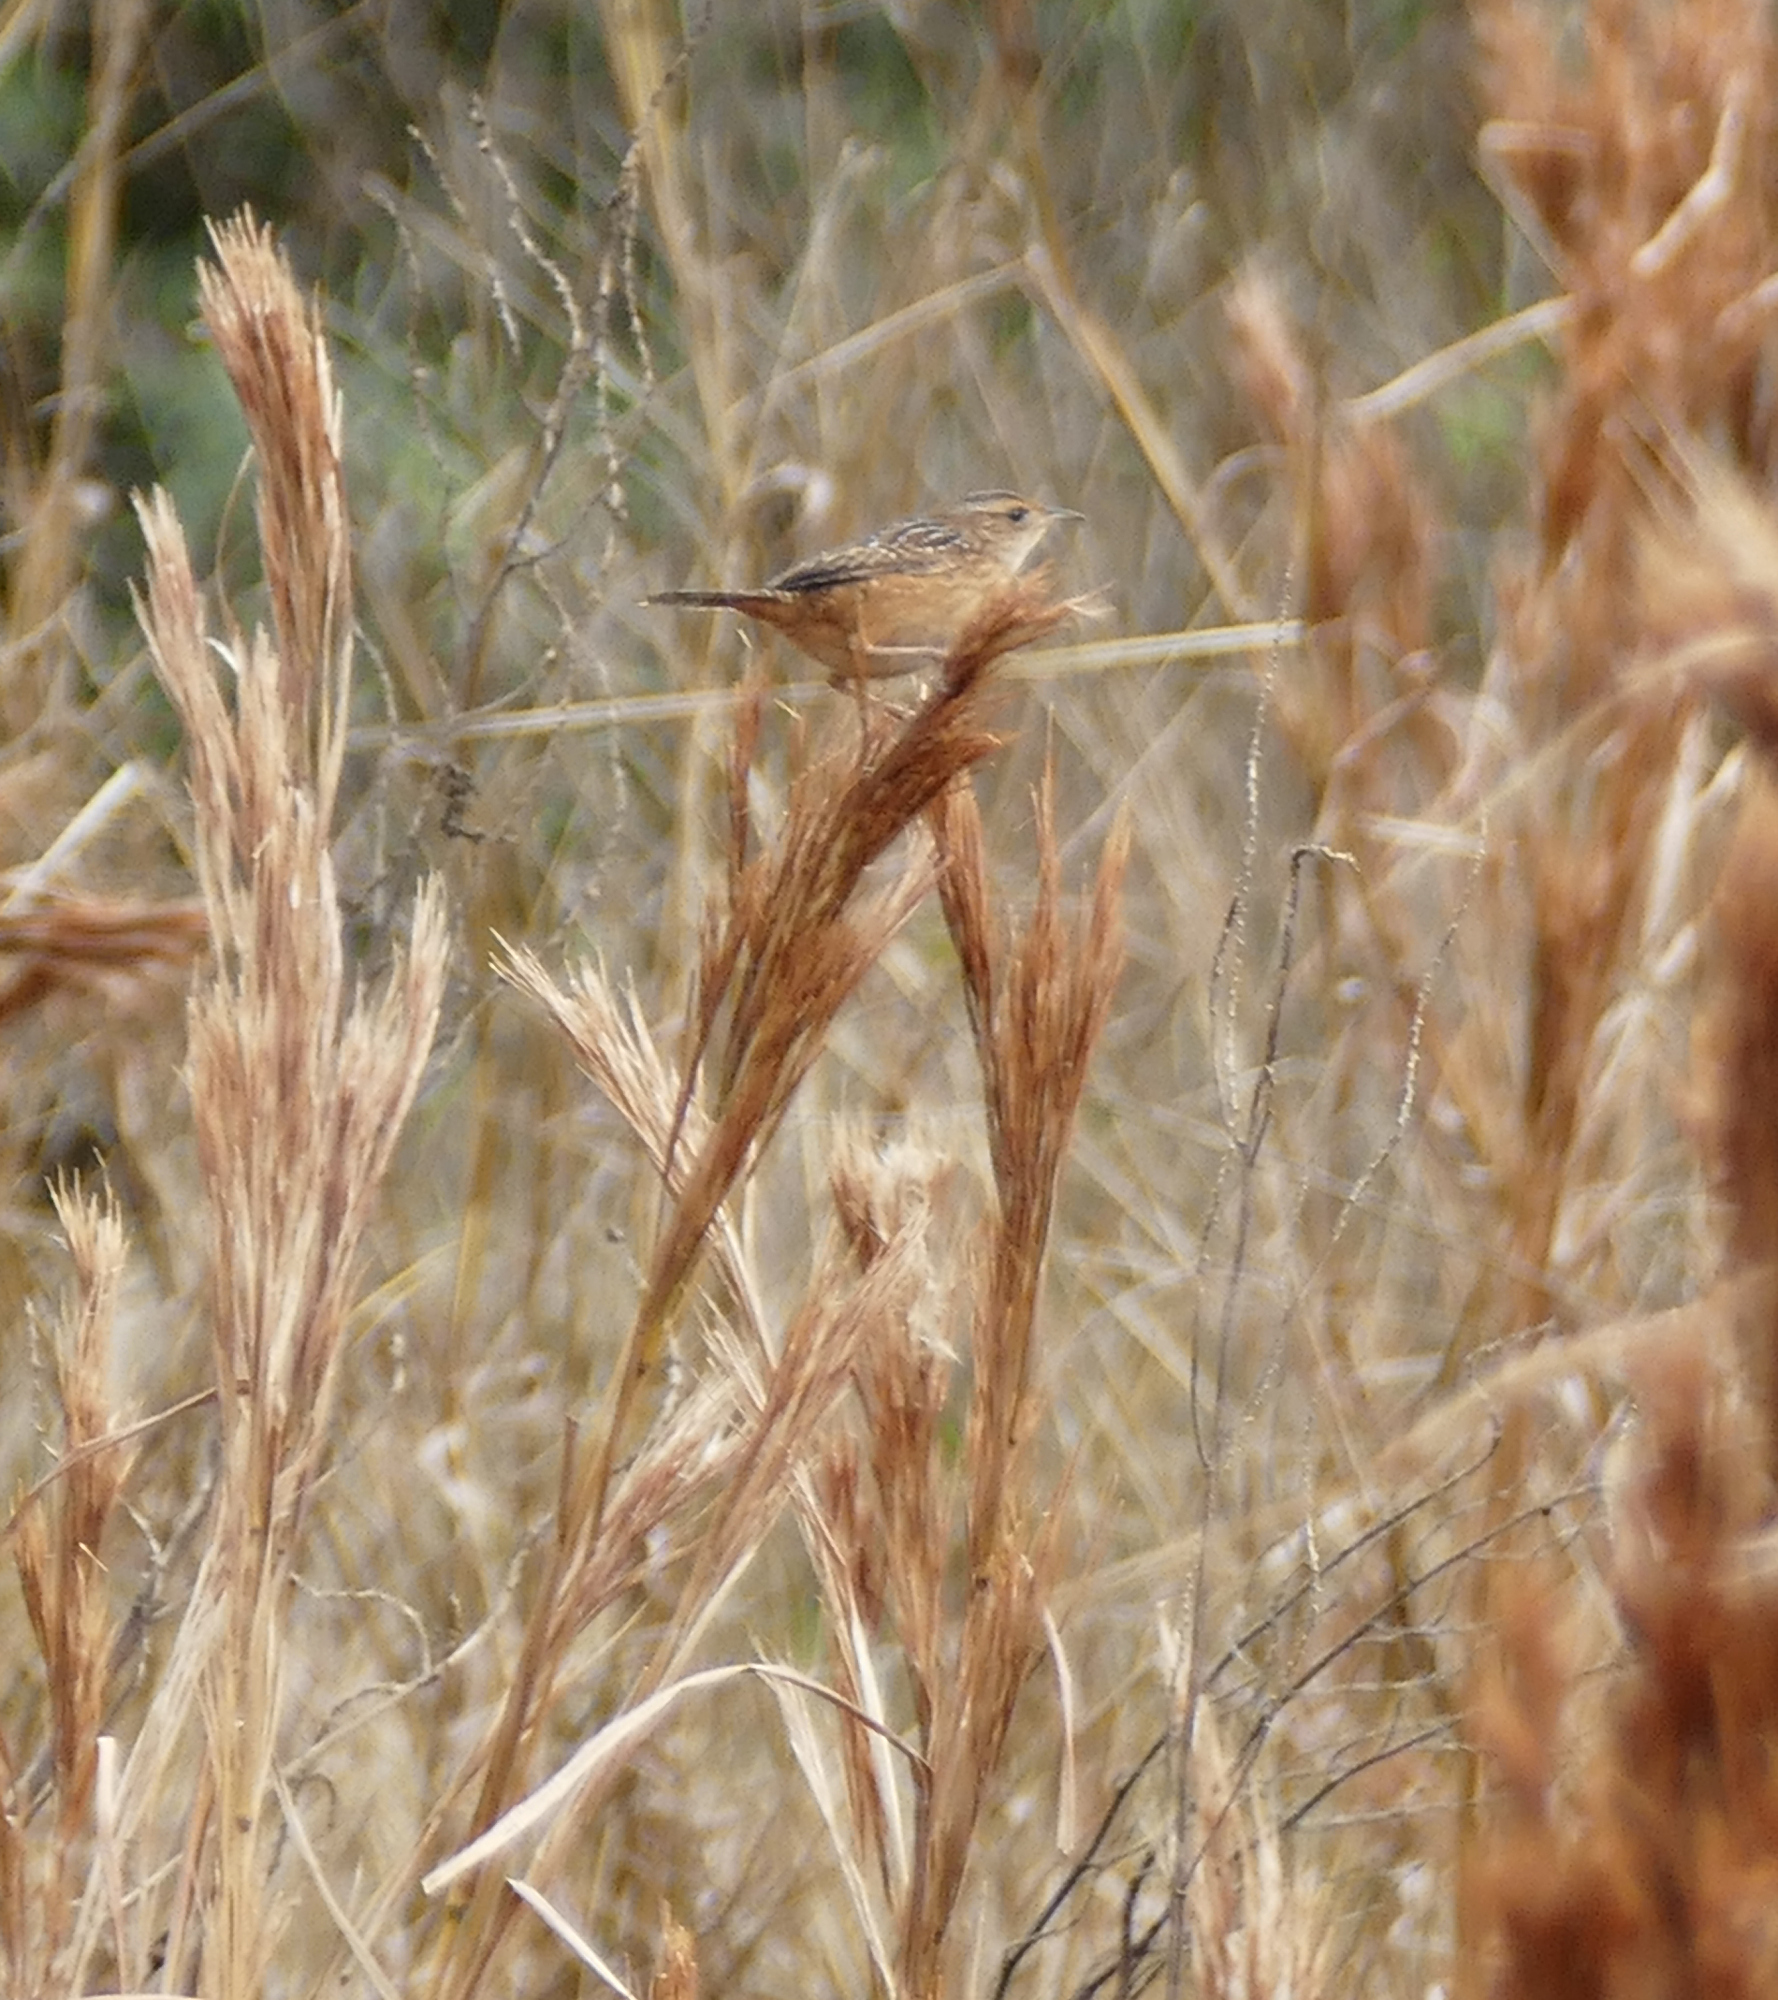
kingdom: Animalia
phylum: Chordata
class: Aves
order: Passeriformes
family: Troglodytidae
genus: Cistothorus
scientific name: Cistothorus platensis
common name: Sedge wren
